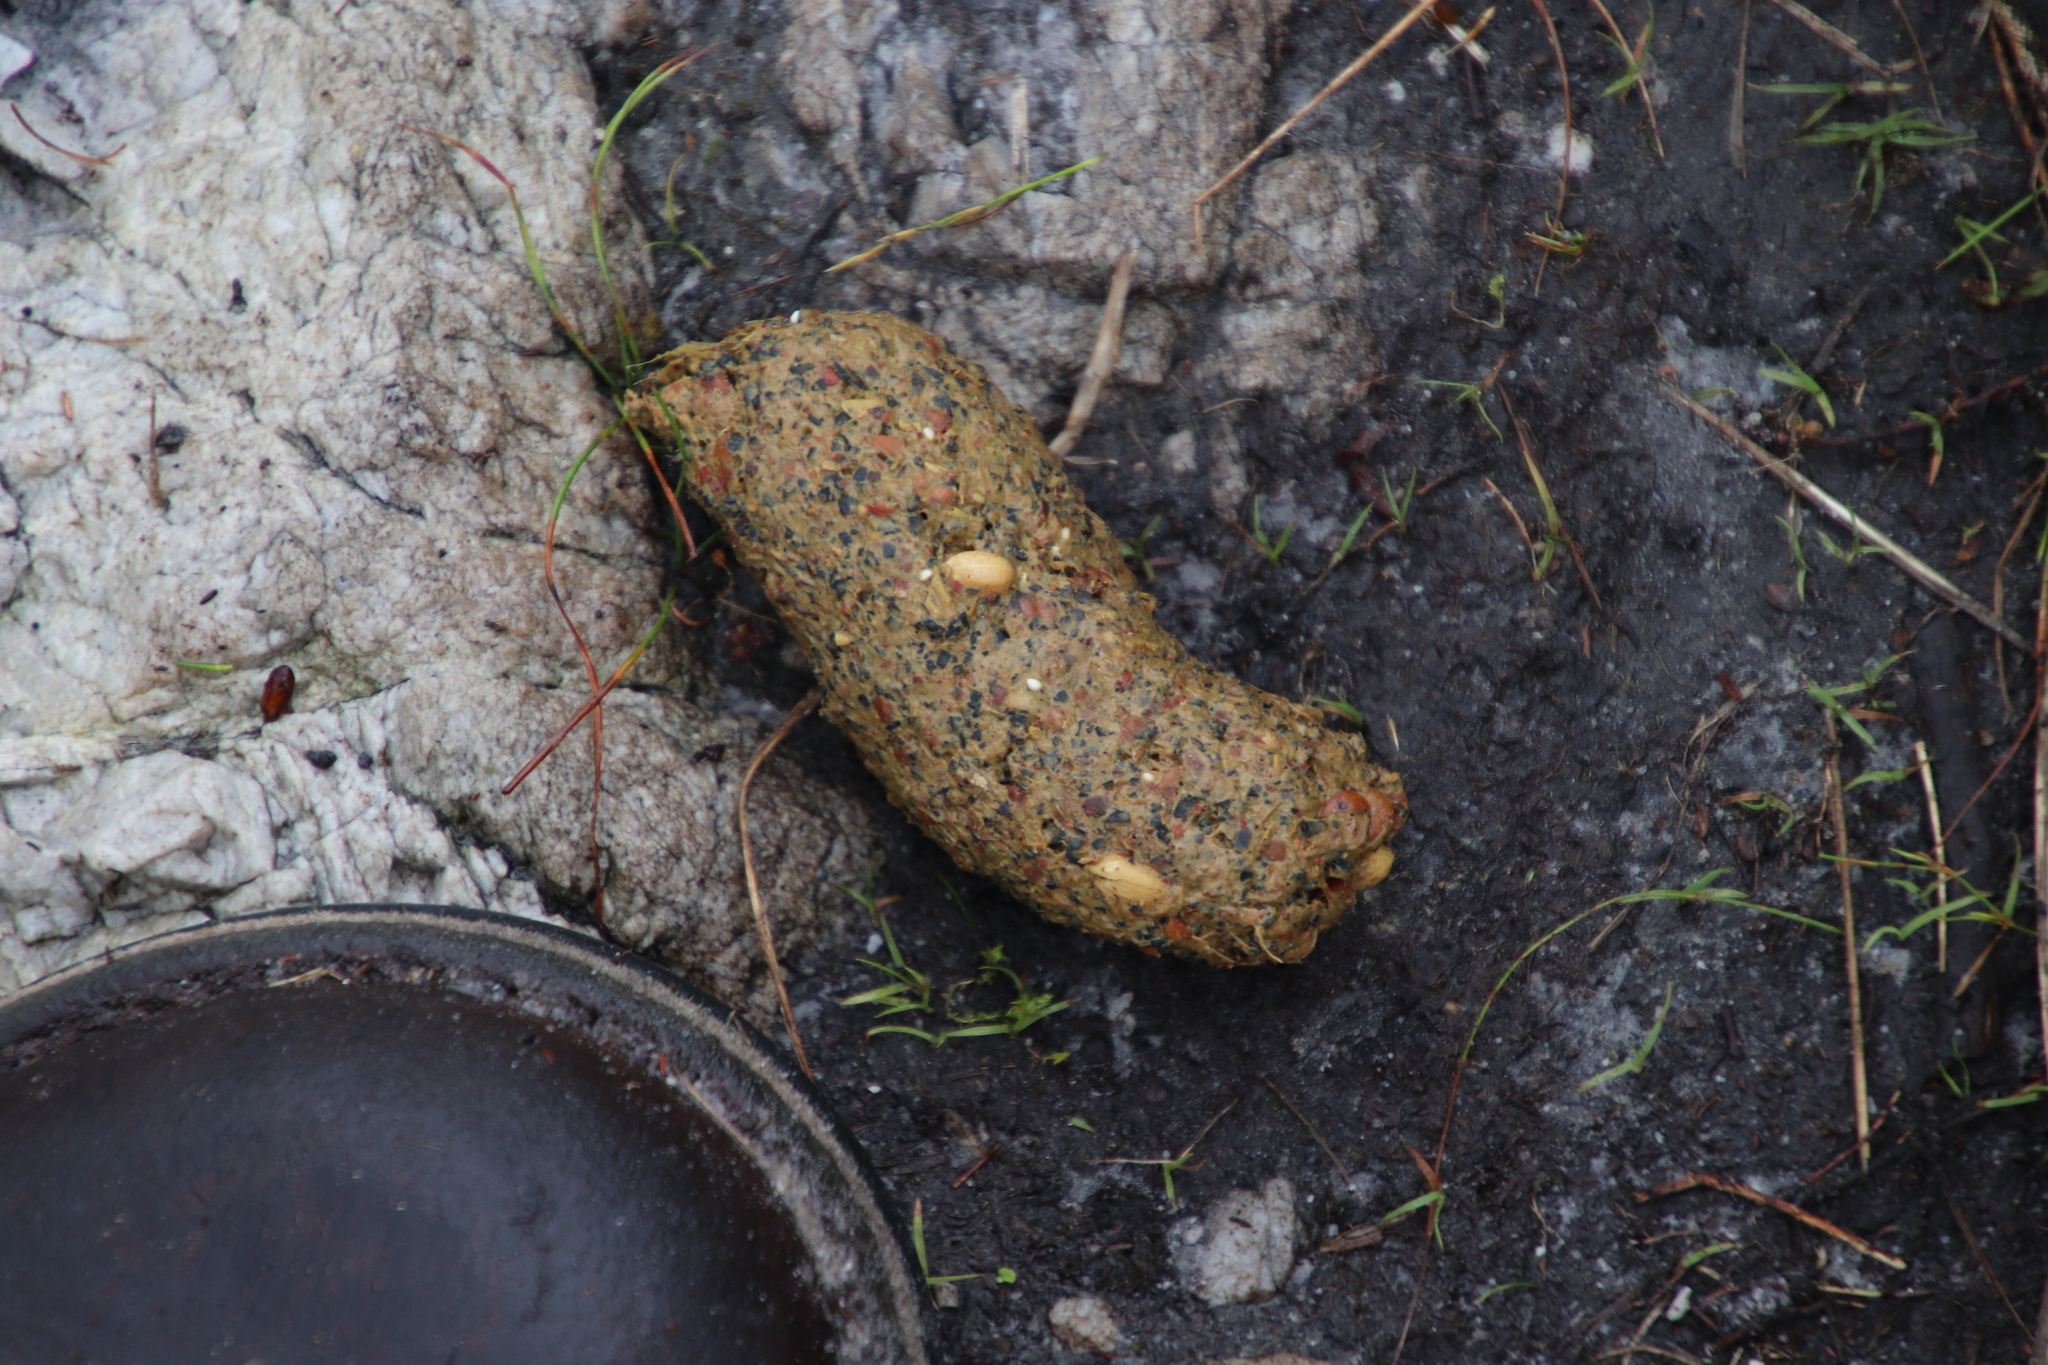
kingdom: Animalia
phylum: Chordata
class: Mammalia
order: Primates
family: Cercopithecidae
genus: Papio
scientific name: Papio ursinus
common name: Chacma baboon
